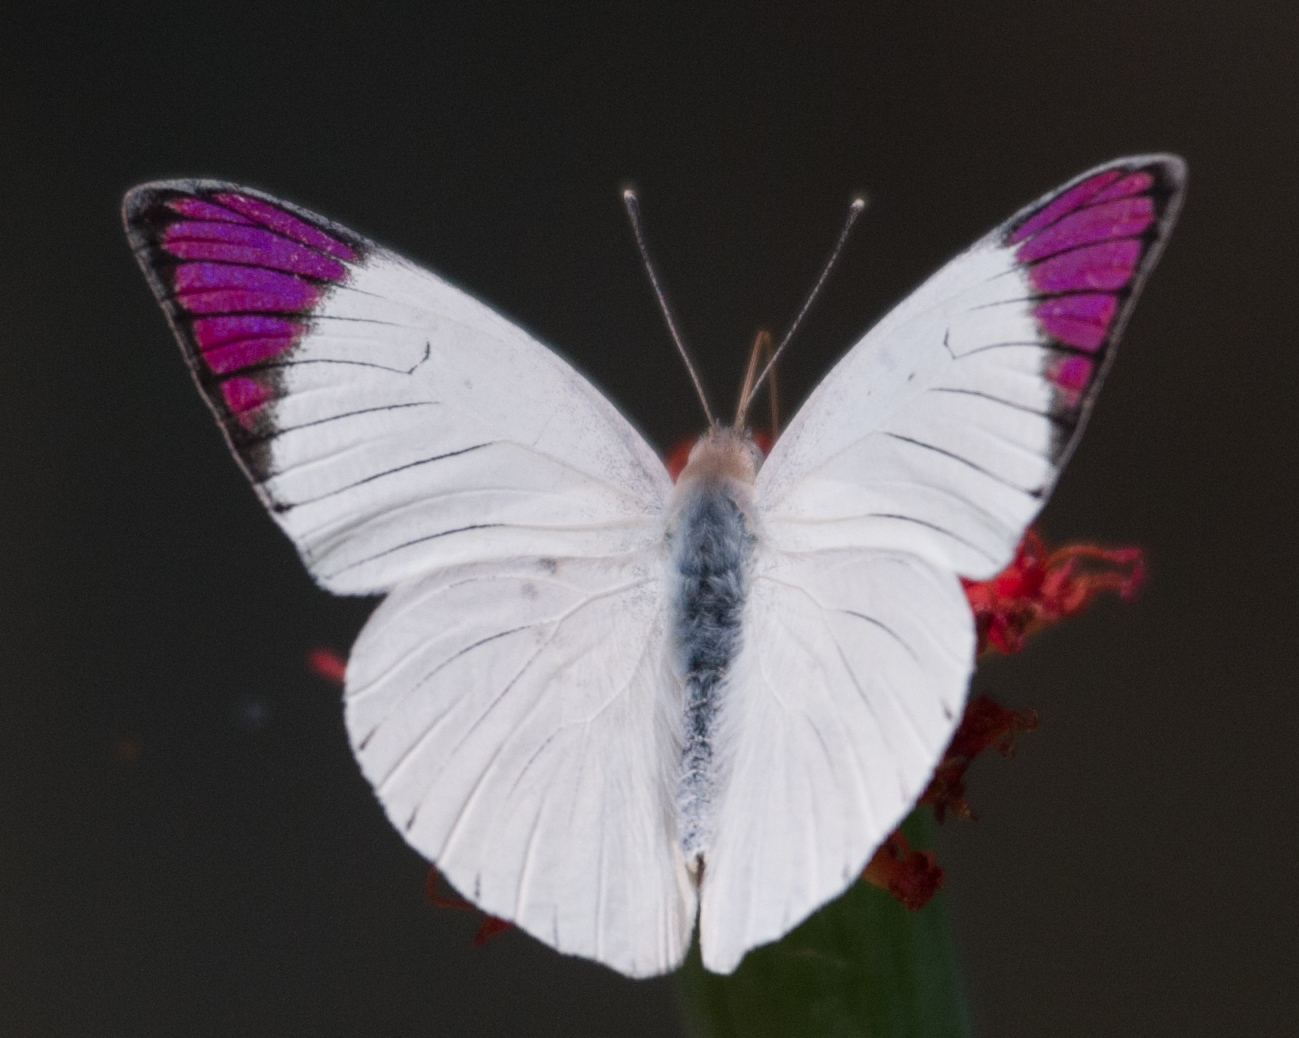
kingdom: Animalia
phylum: Arthropoda
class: Insecta
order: Lepidoptera
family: Pieridae
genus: Colotis
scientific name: Colotis regina
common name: Queen purple tip
